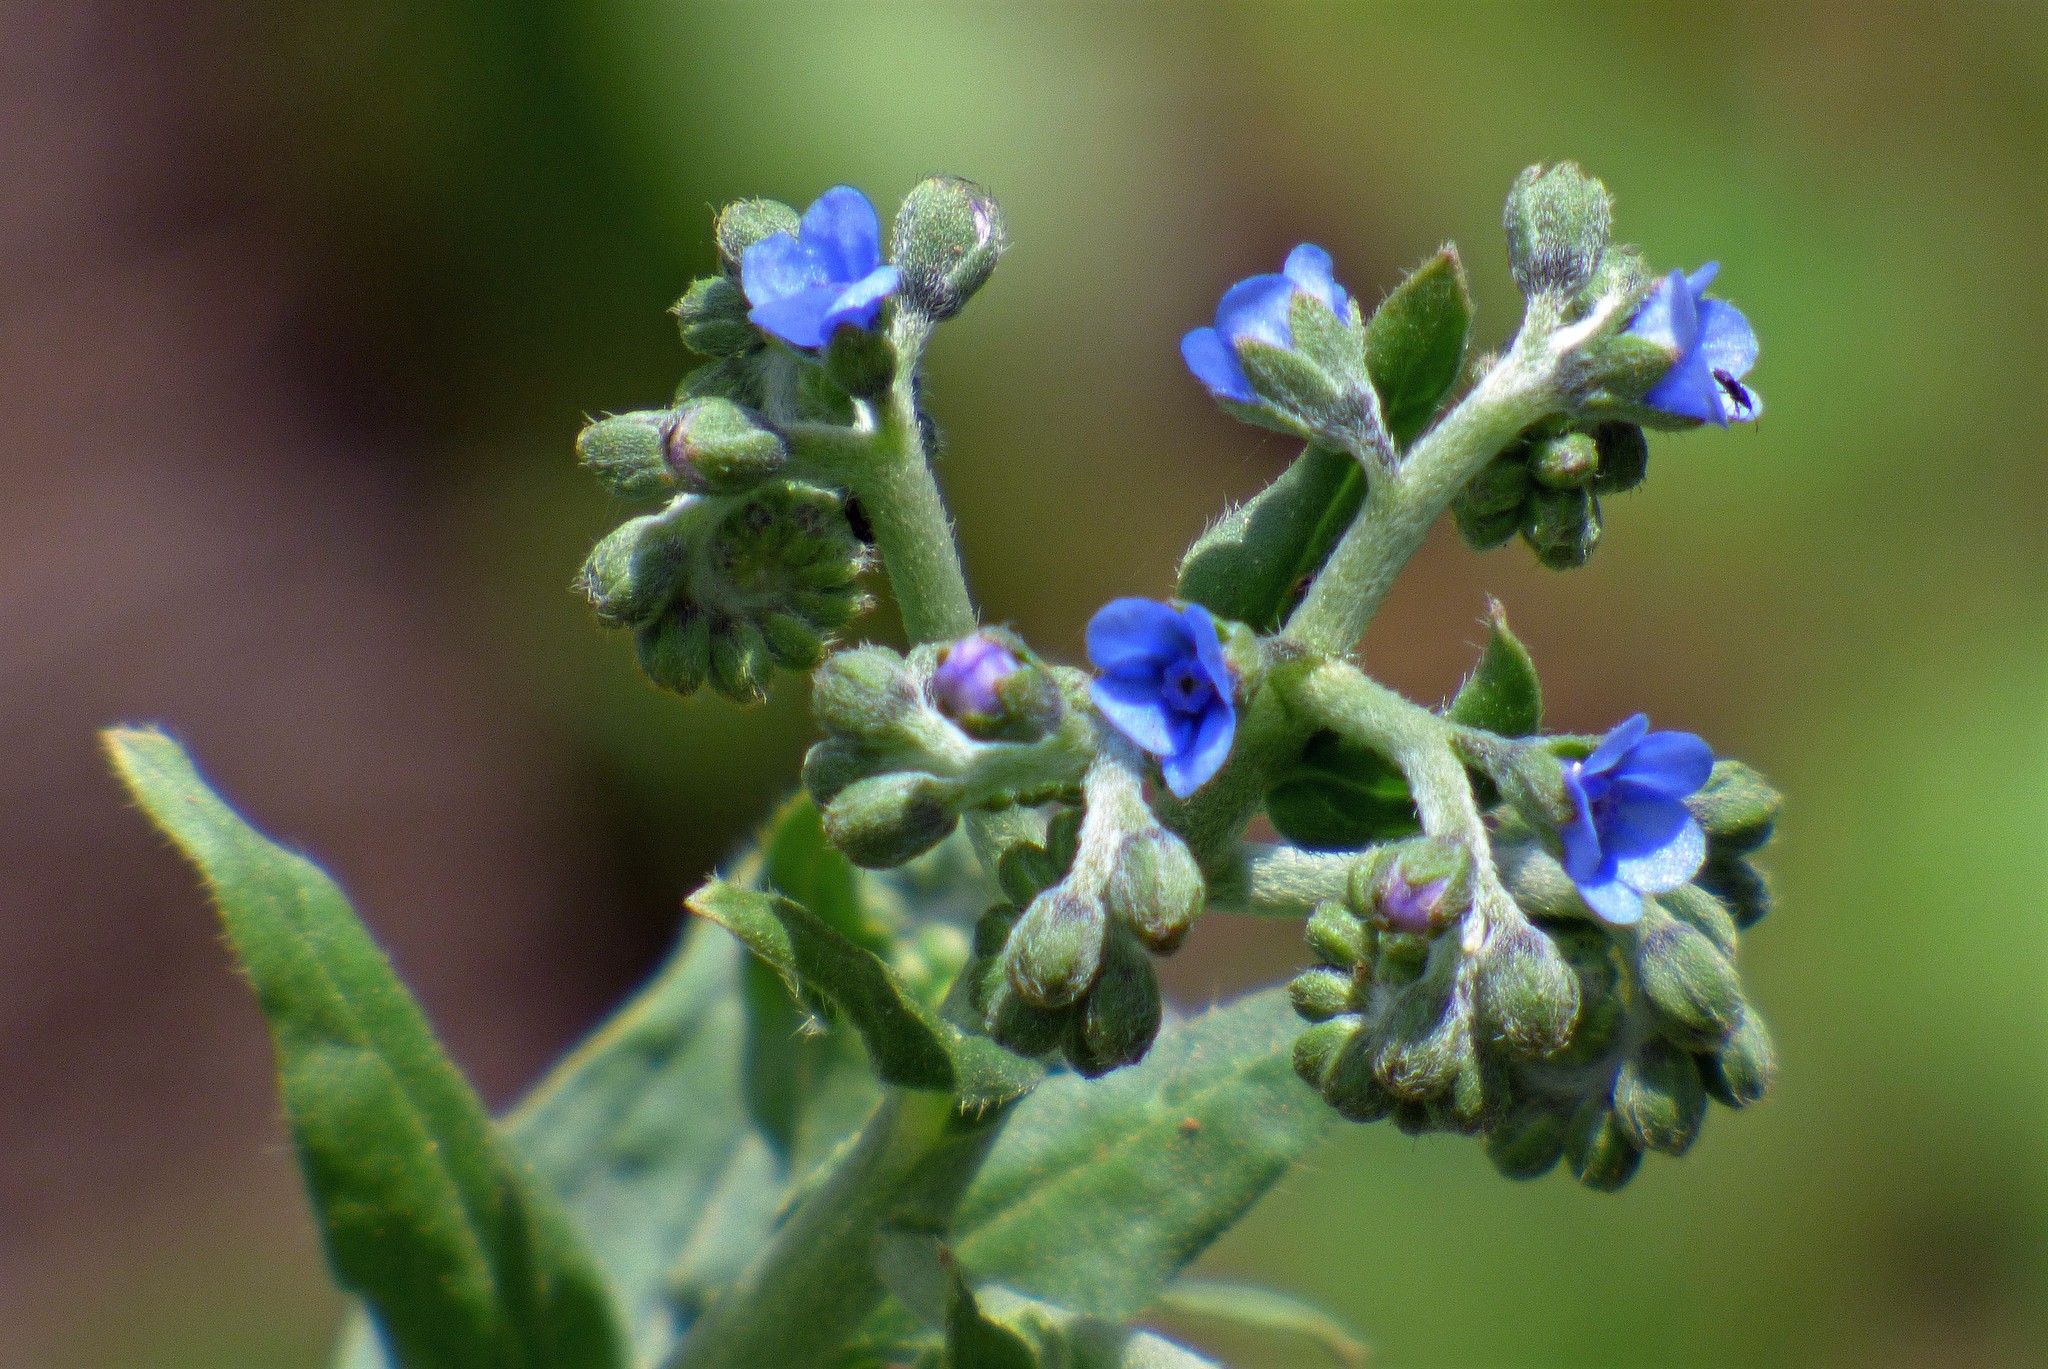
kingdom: Plantae
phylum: Tracheophyta
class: Magnoliopsida
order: Boraginales
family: Boraginaceae
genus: Cynoglossum
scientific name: Cynoglossum amabile
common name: Chinese hound's tongue
